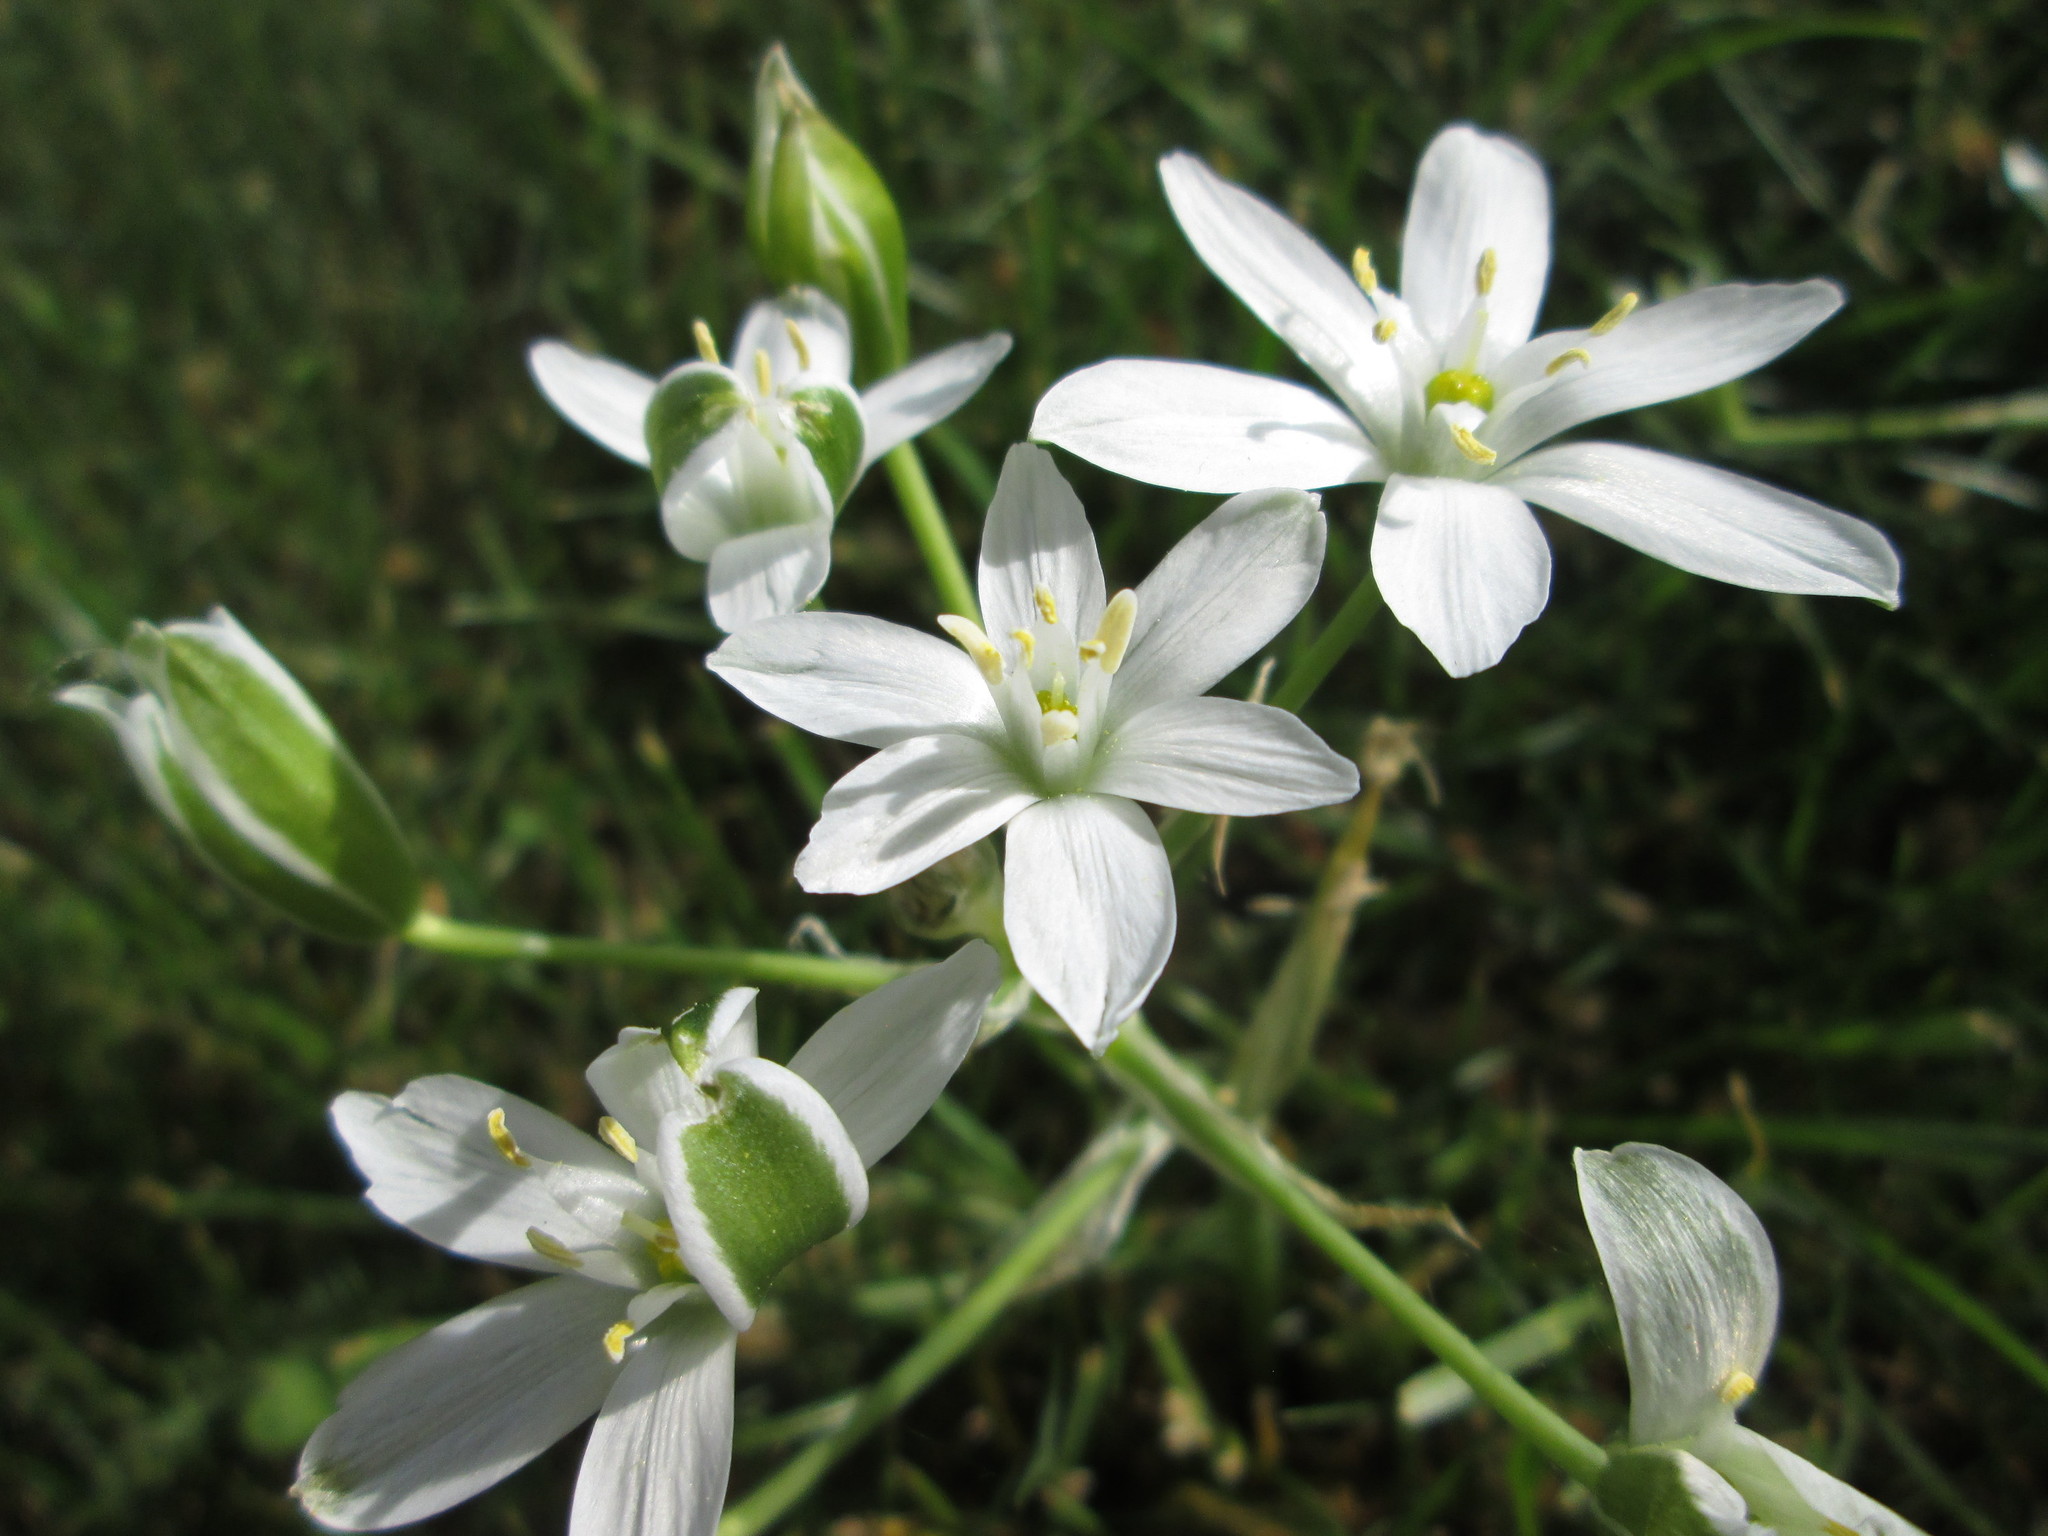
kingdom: Plantae
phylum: Tracheophyta
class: Liliopsida
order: Asparagales
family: Asparagaceae
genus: Ornithogalum
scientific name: Ornithogalum umbellatum
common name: Garden star-of-bethlehem
